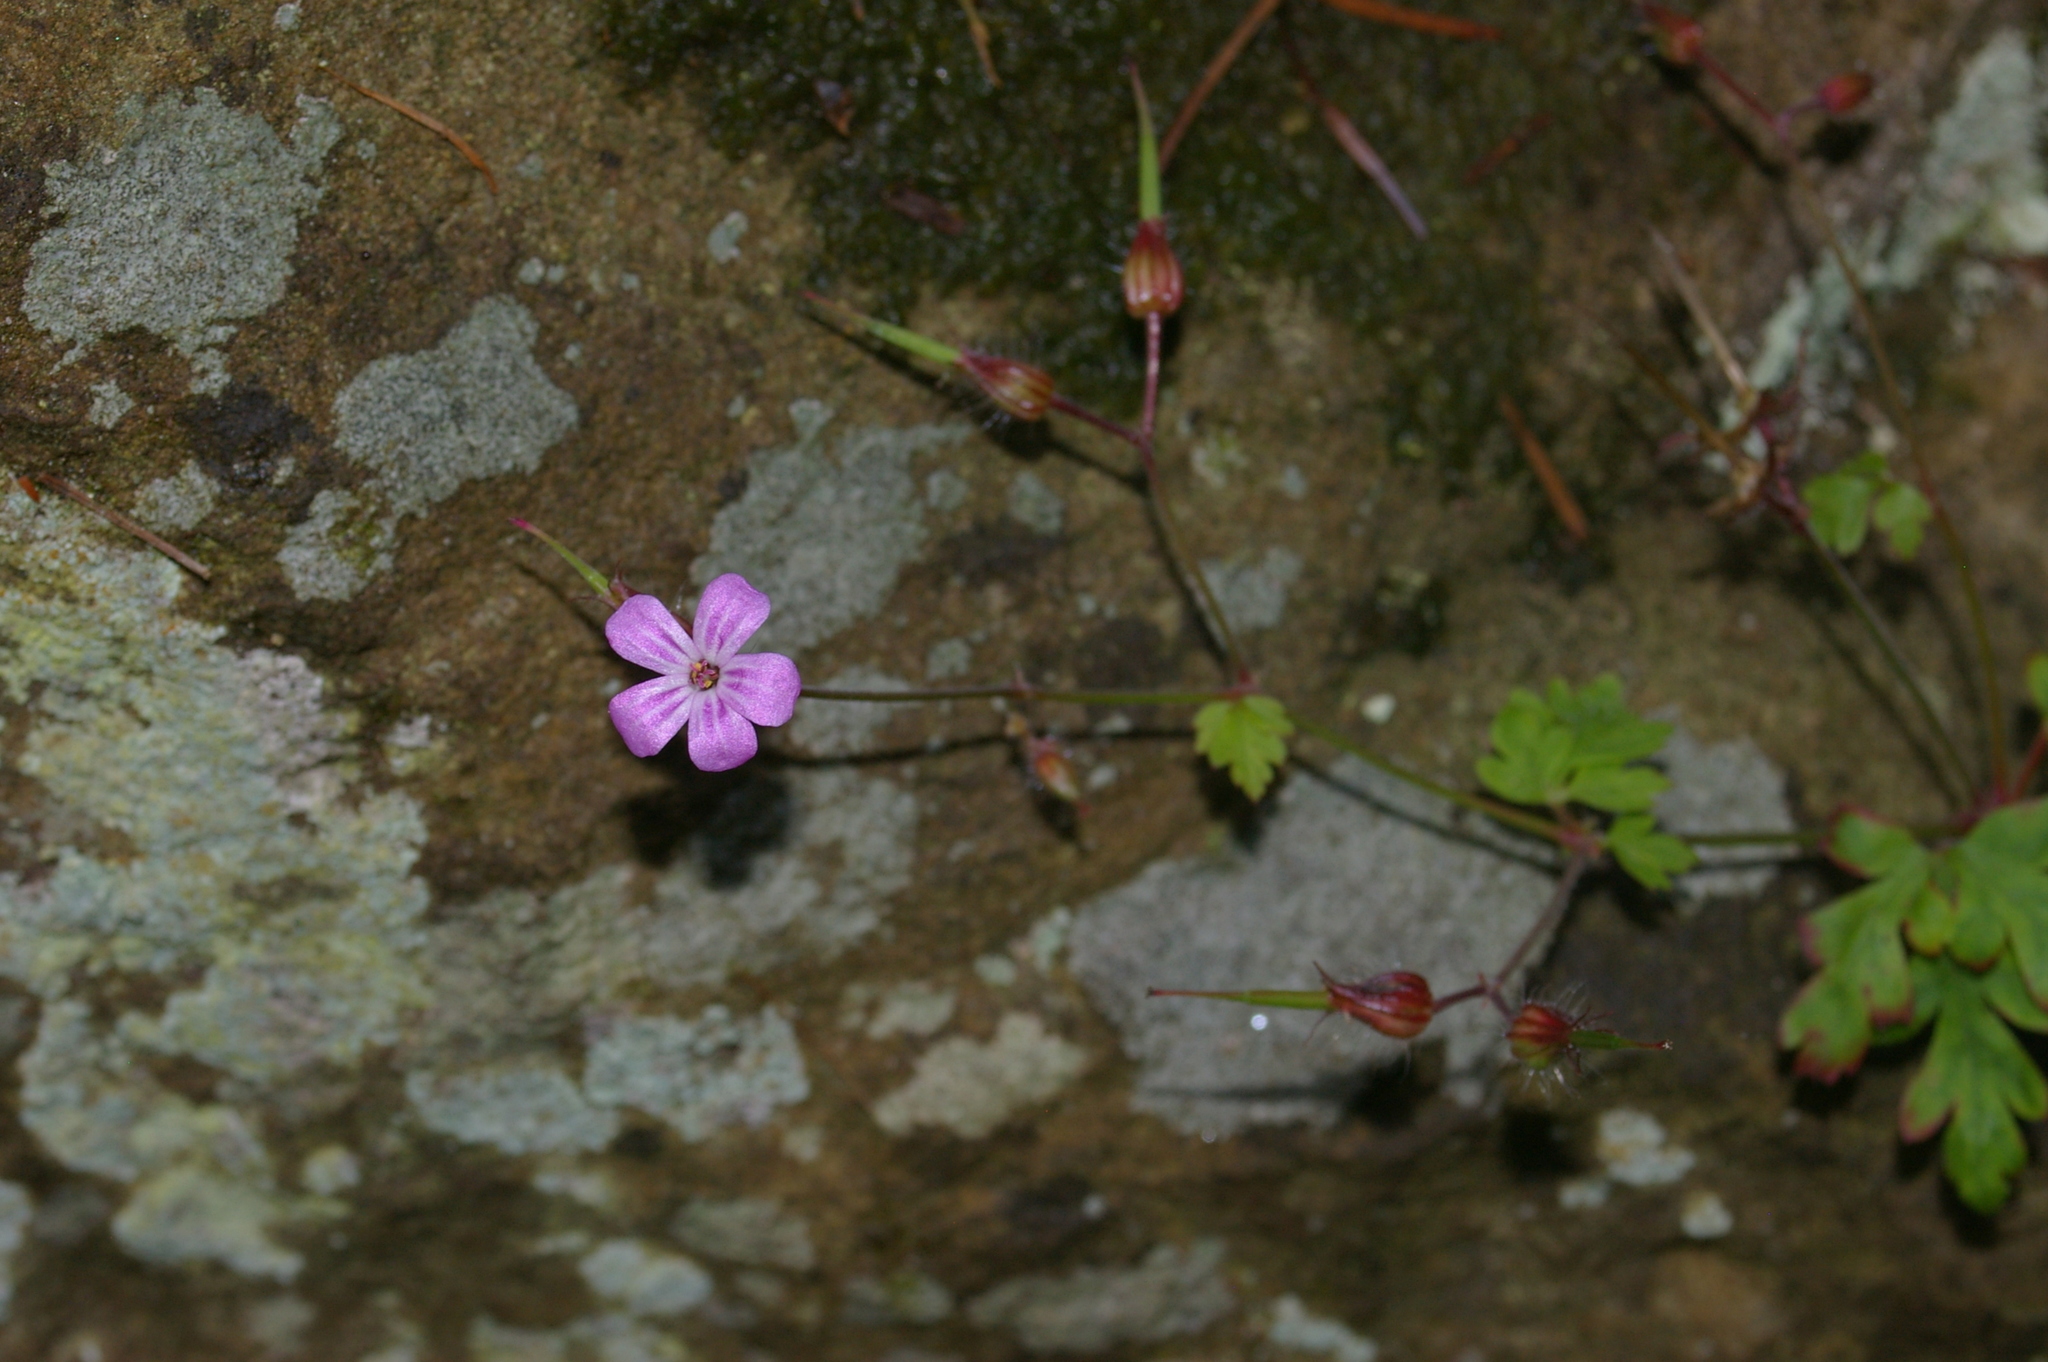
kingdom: Plantae
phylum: Tracheophyta
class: Magnoliopsida
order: Geraniales
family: Geraniaceae
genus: Geranium
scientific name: Geranium robertianum
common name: Herb-robert
